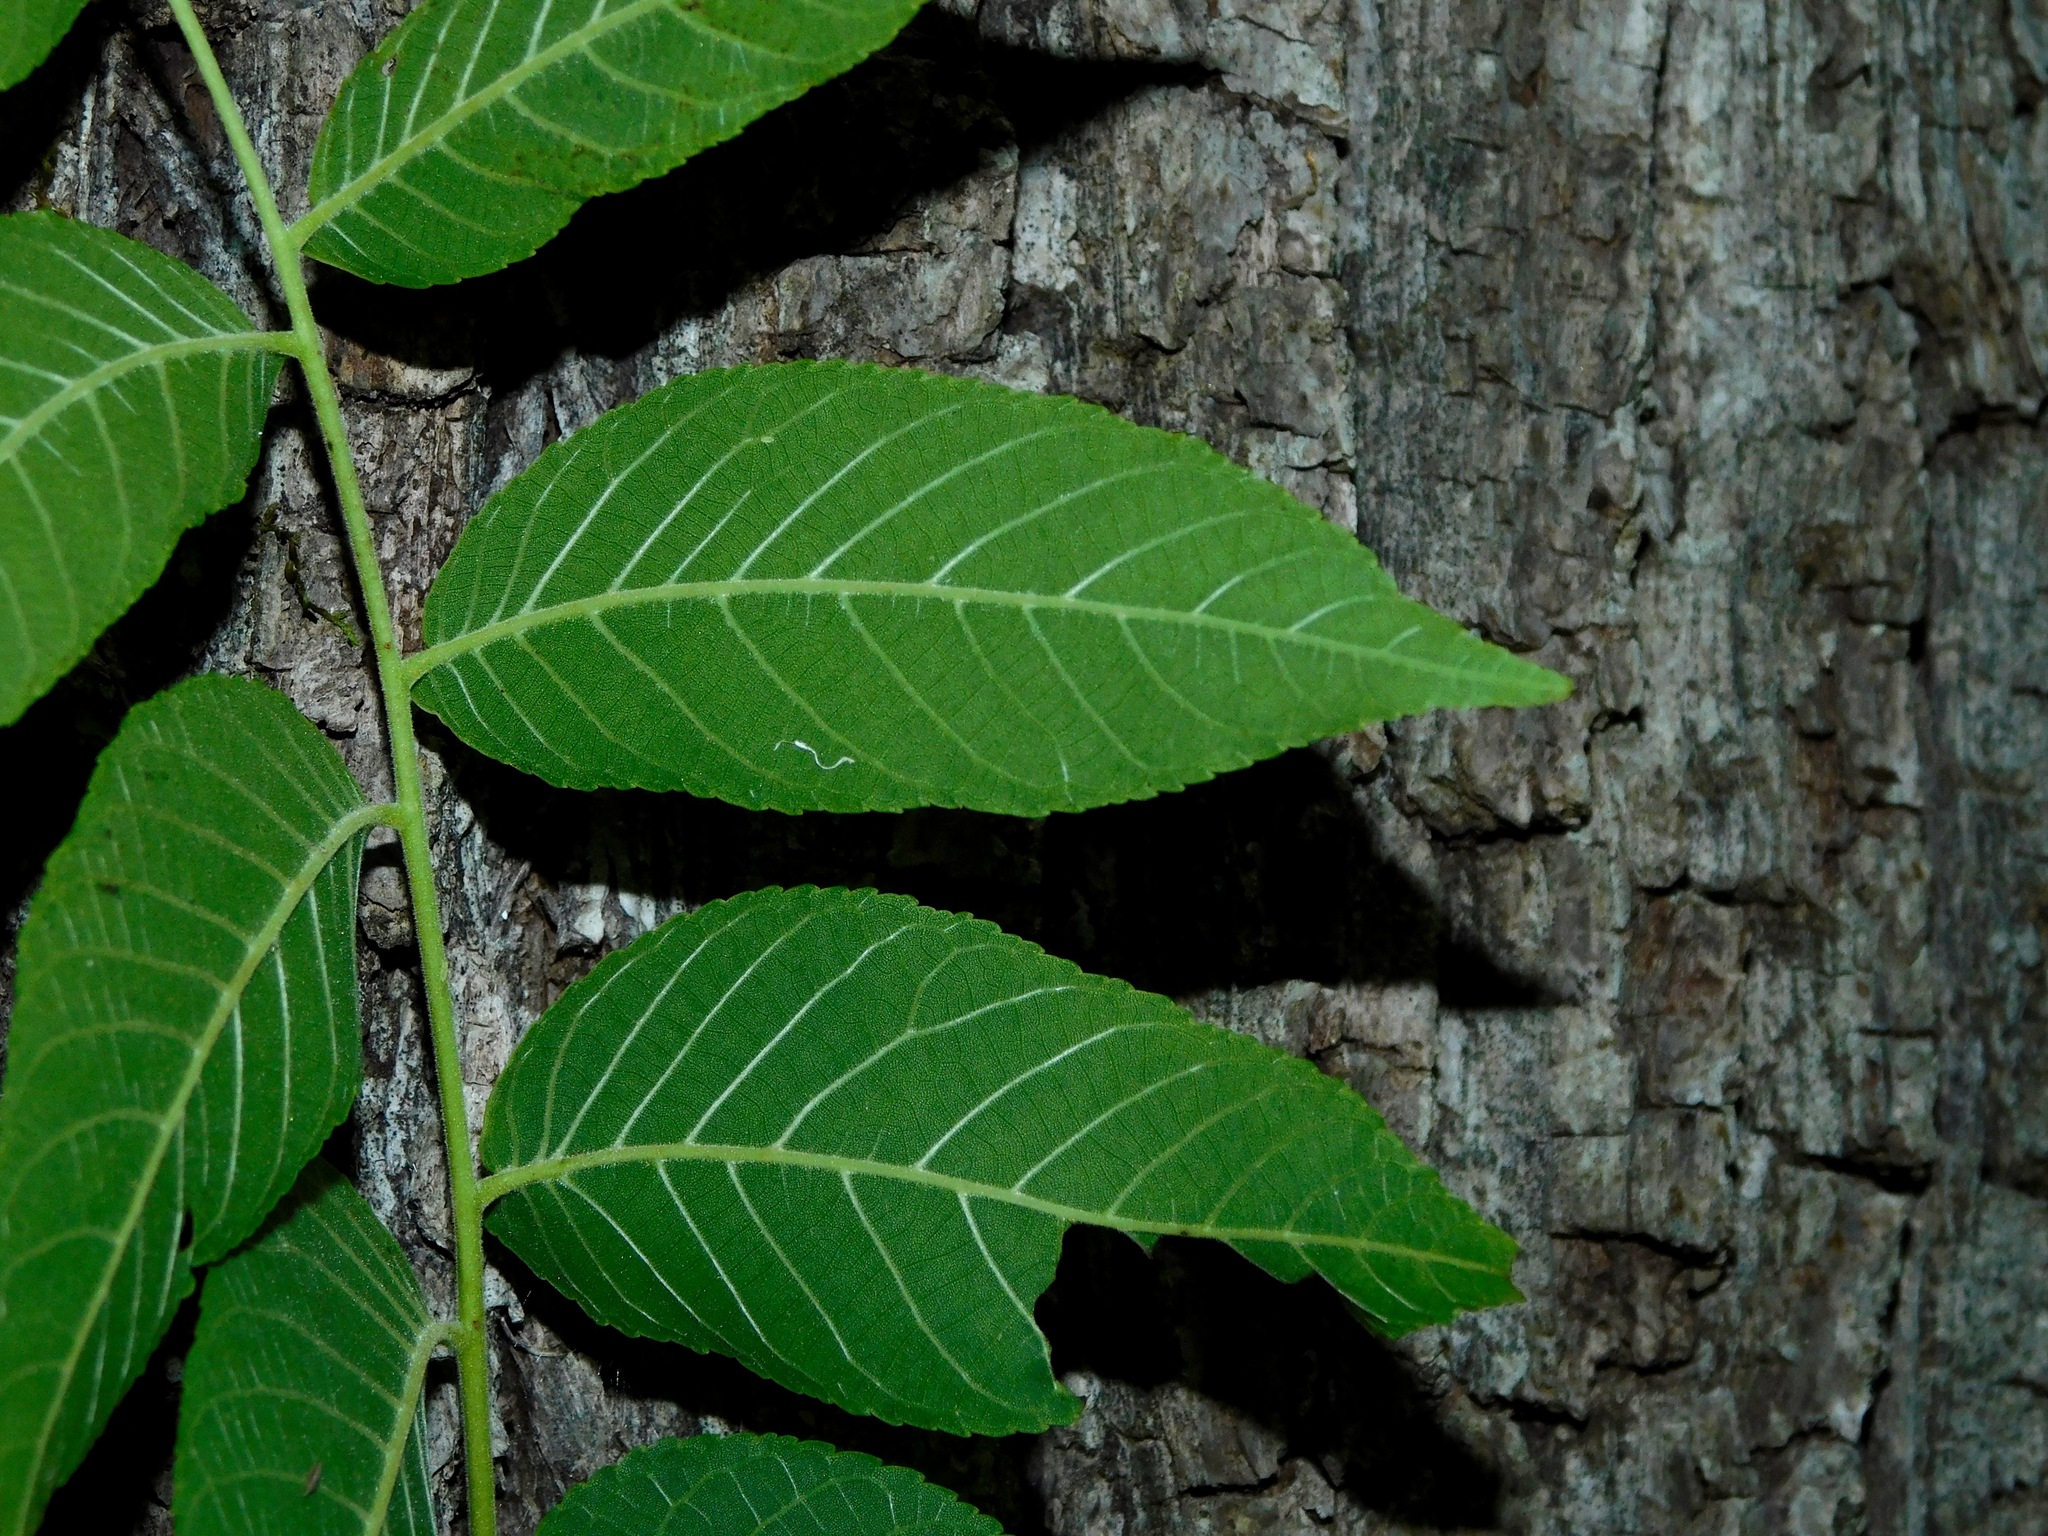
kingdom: Plantae
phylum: Tracheophyta
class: Magnoliopsida
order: Fagales
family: Juglandaceae
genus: Juglans
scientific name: Juglans cinerea
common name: Butternut
